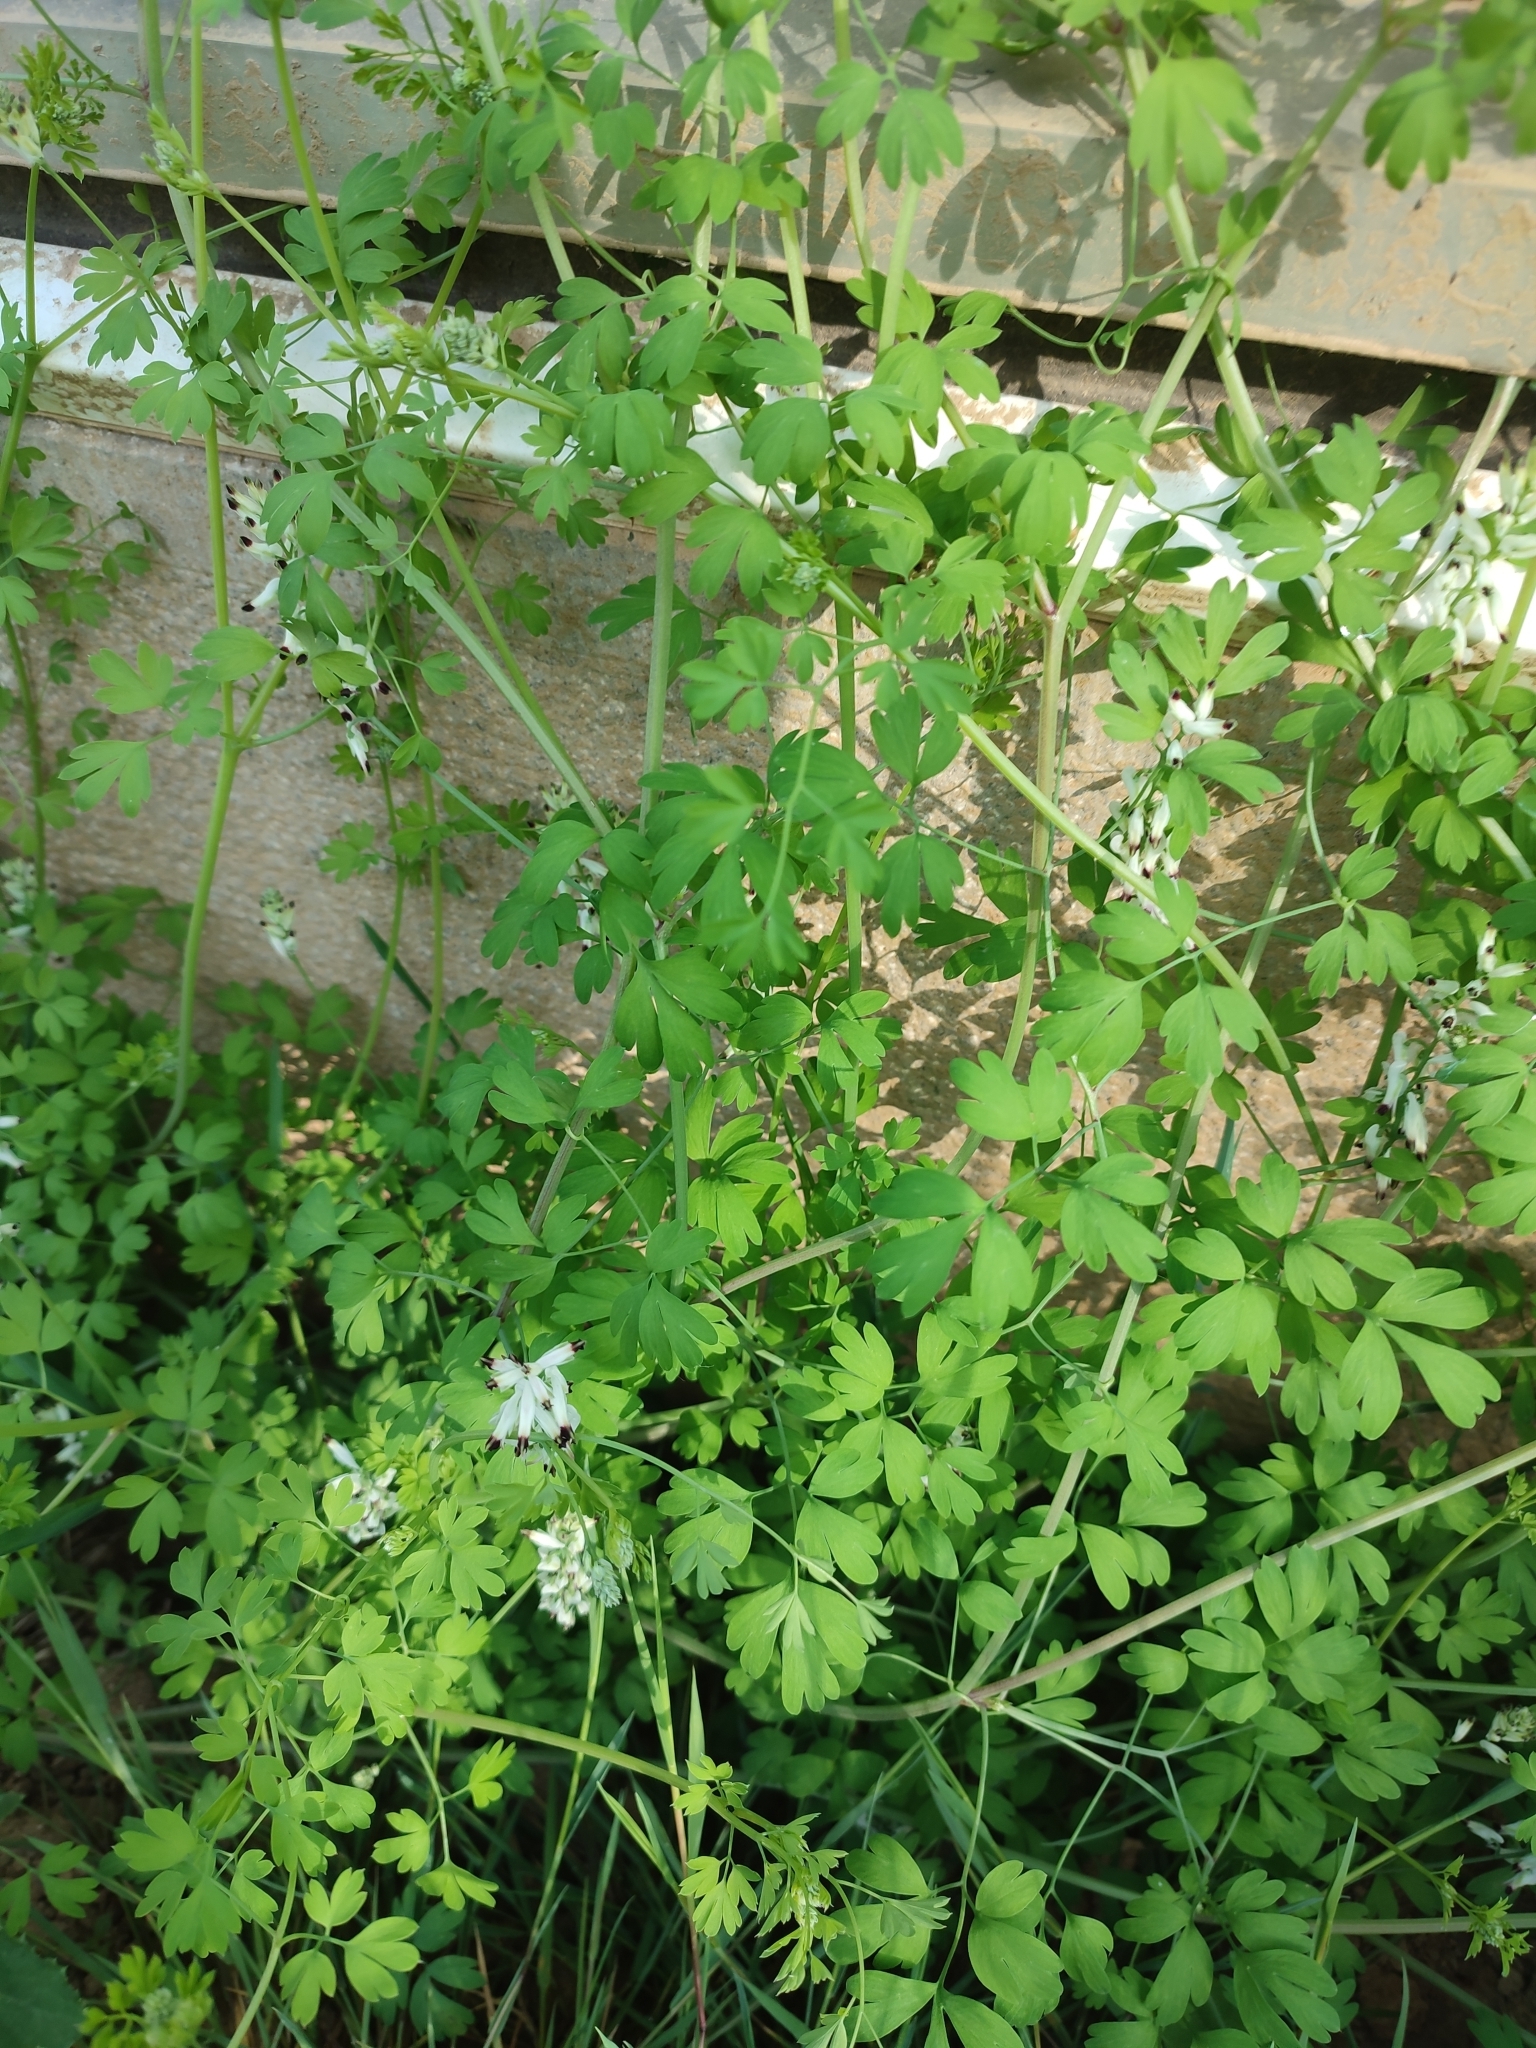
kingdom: Plantae
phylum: Tracheophyta
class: Magnoliopsida
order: Ranunculales
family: Papaveraceae
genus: Fumaria
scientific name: Fumaria capreolata
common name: White ramping-fumitory
